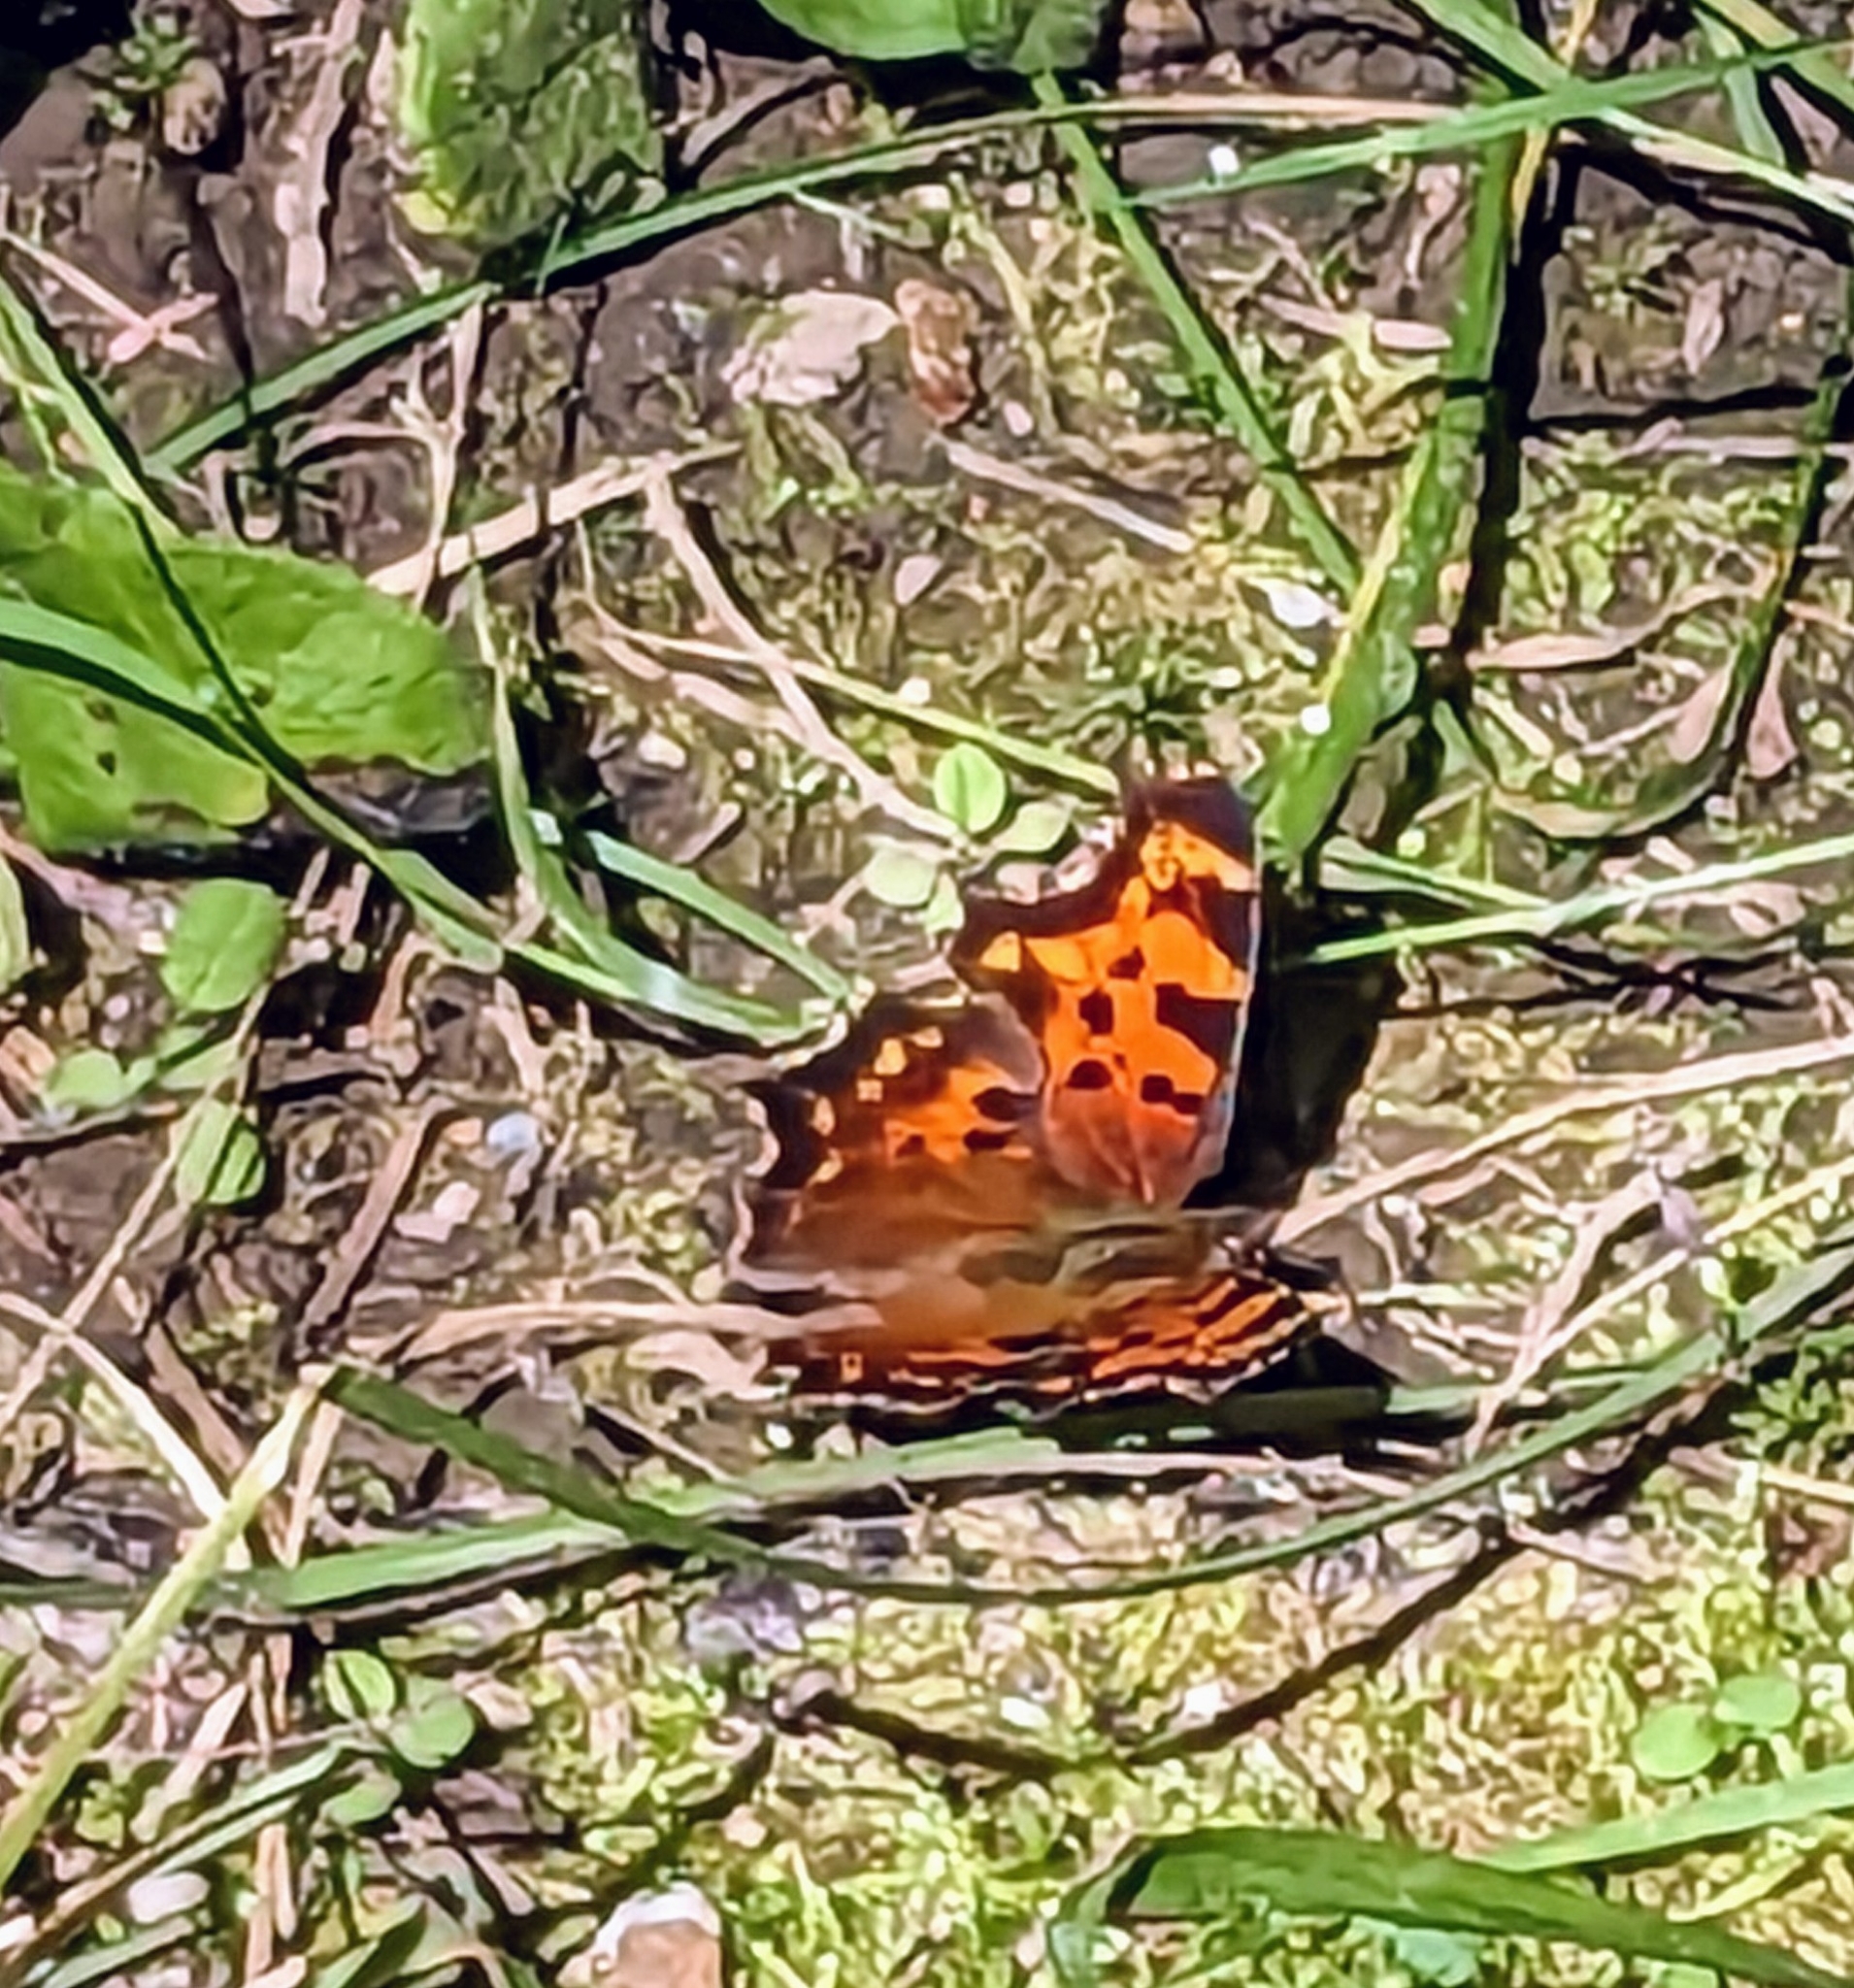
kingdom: Animalia
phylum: Arthropoda
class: Insecta
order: Lepidoptera
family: Nymphalidae
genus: Polygonia
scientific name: Polygonia faunus
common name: Green comma
